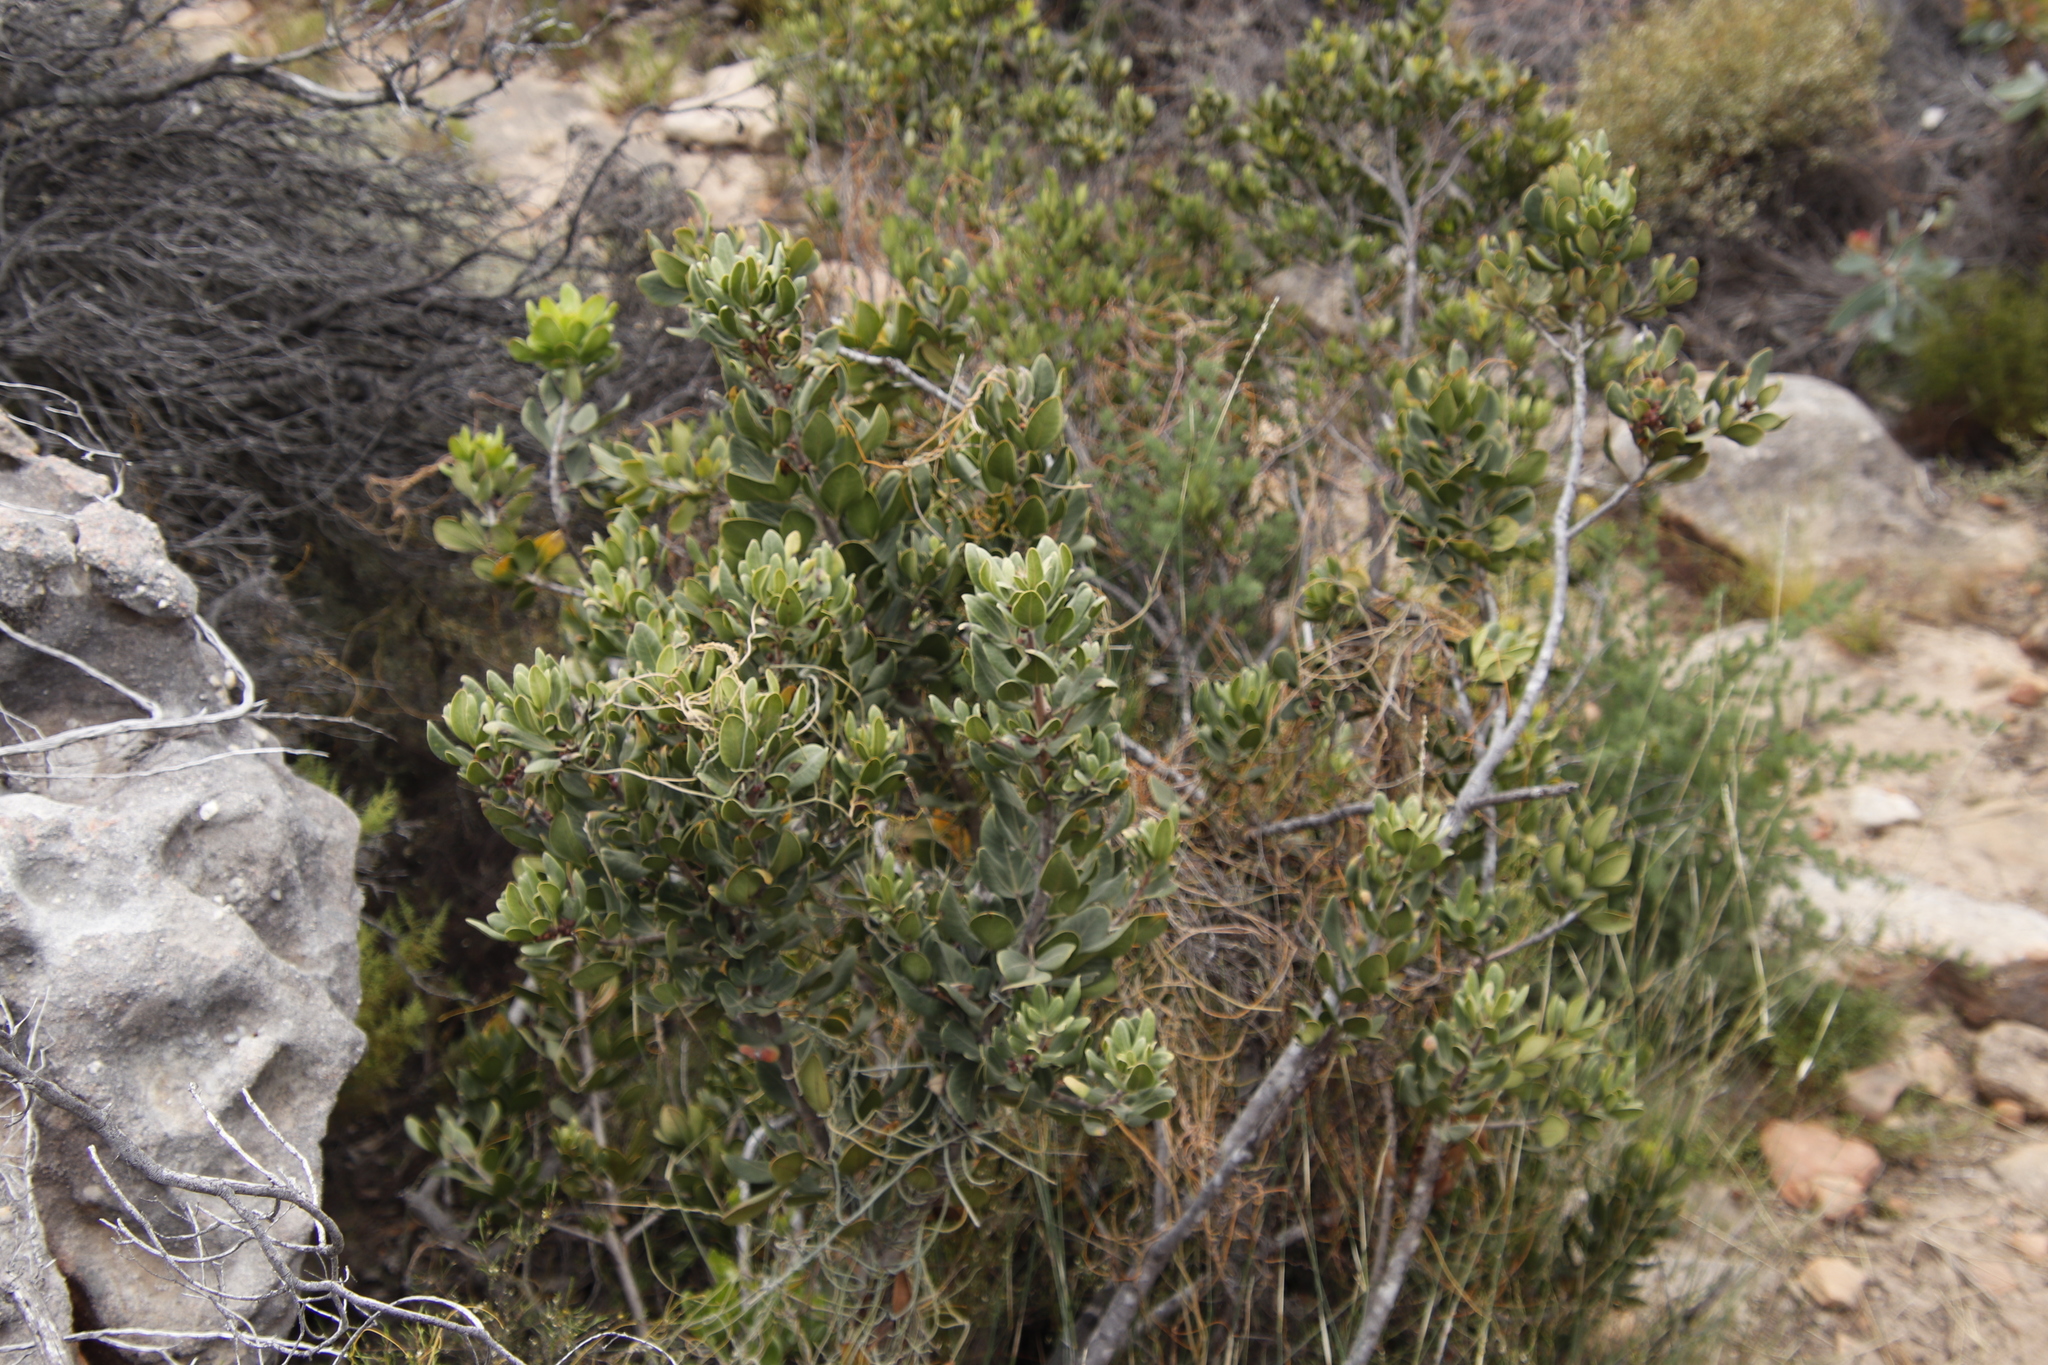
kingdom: Plantae
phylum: Tracheophyta
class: Magnoliopsida
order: Sapindales
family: Anacardiaceae
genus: Searsia
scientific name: Searsia scytophylla
